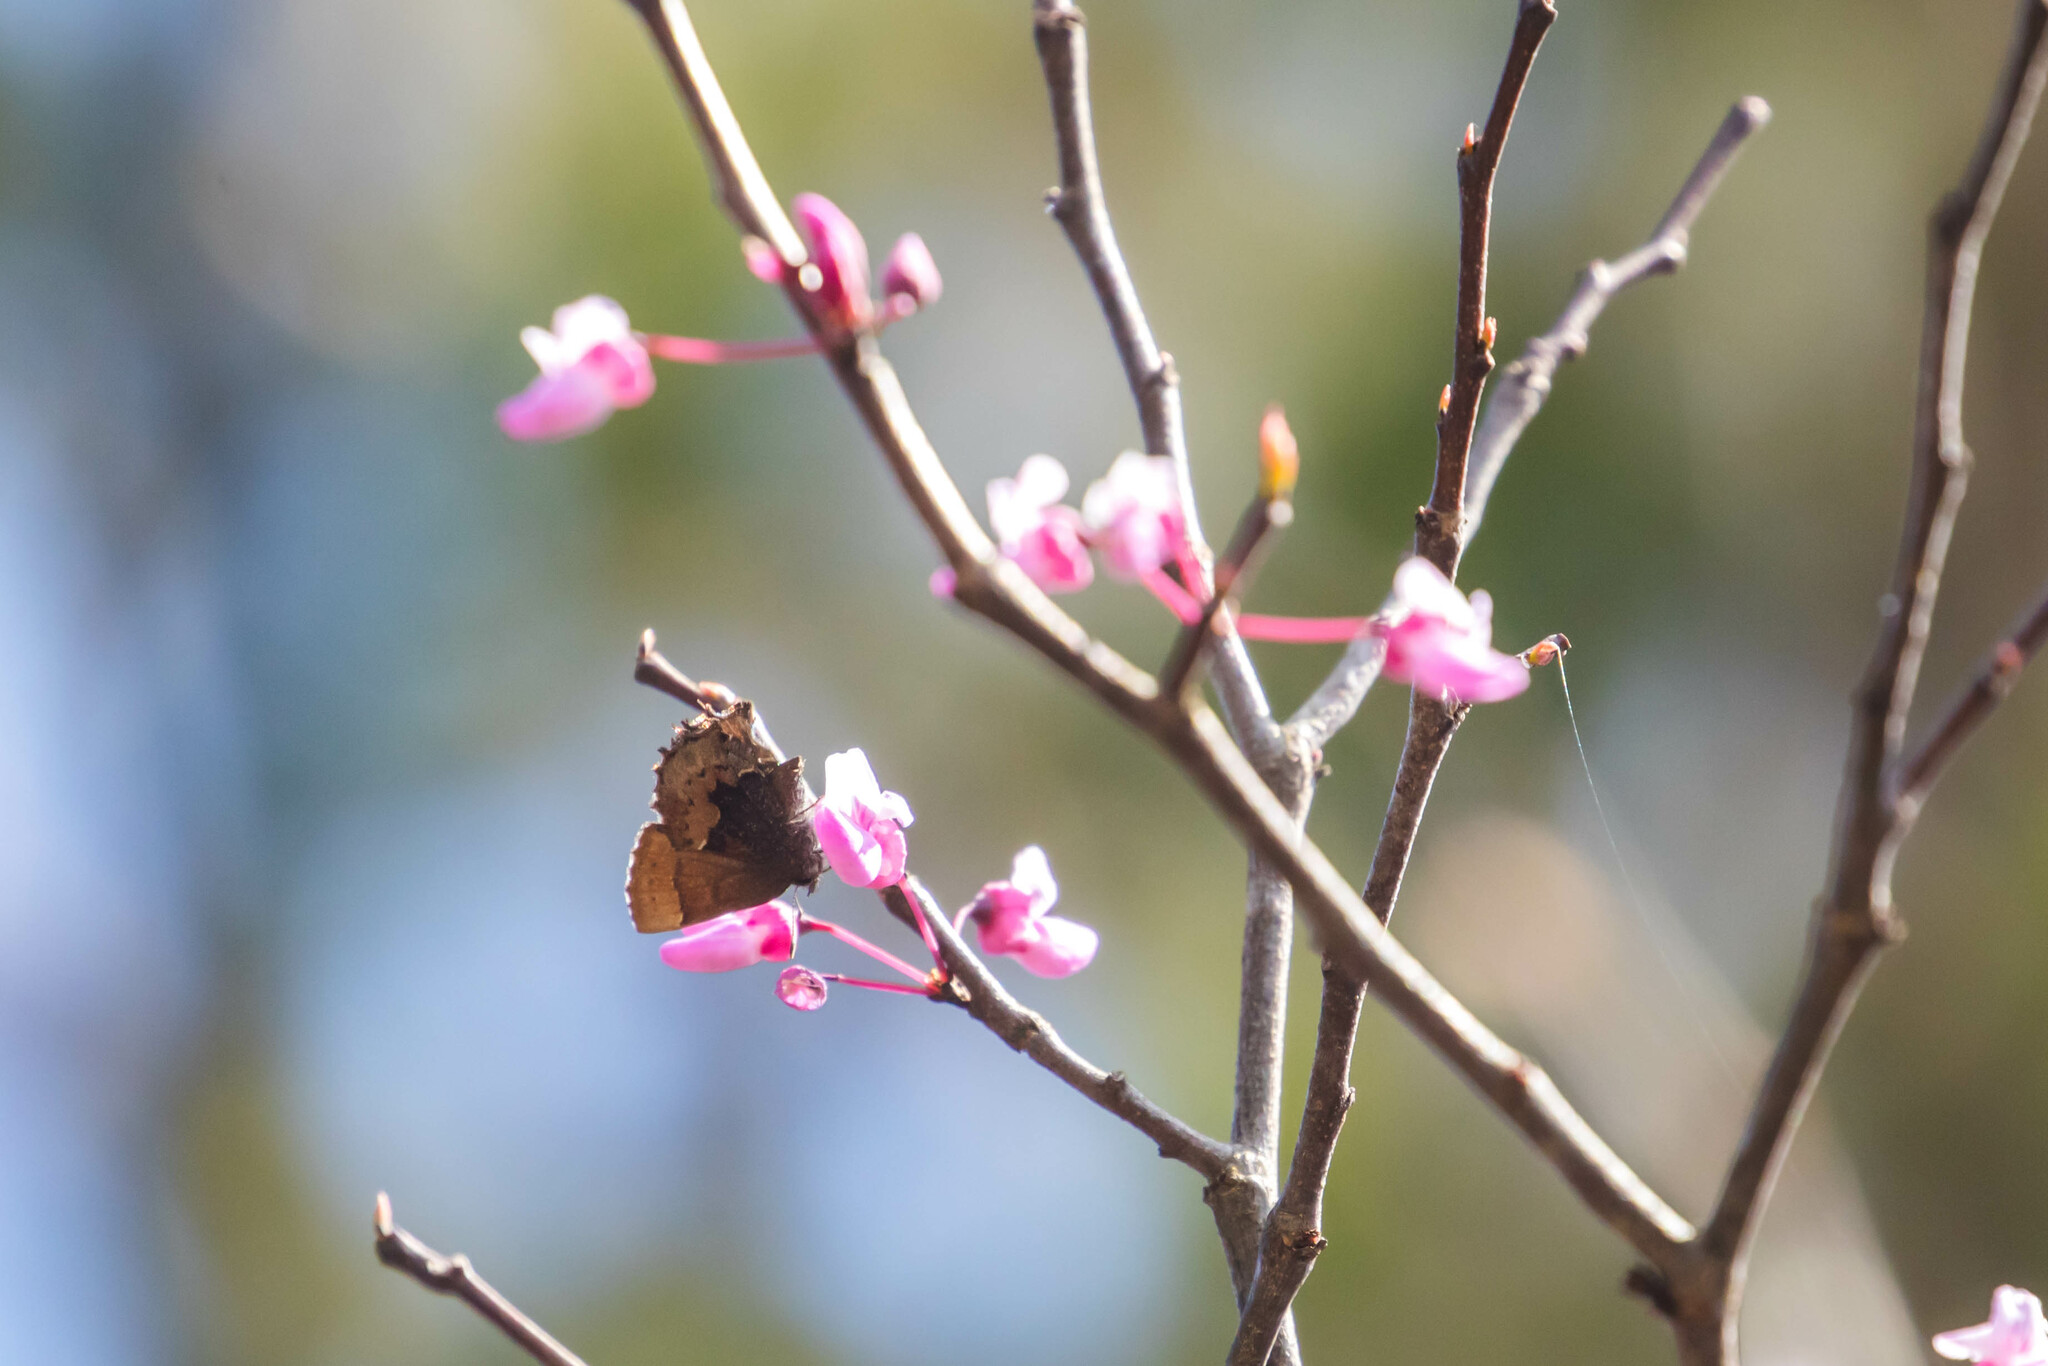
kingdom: Animalia
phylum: Arthropoda
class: Insecta
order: Lepidoptera
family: Lycaenidae
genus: Incisalia
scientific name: Incisalia henrici
